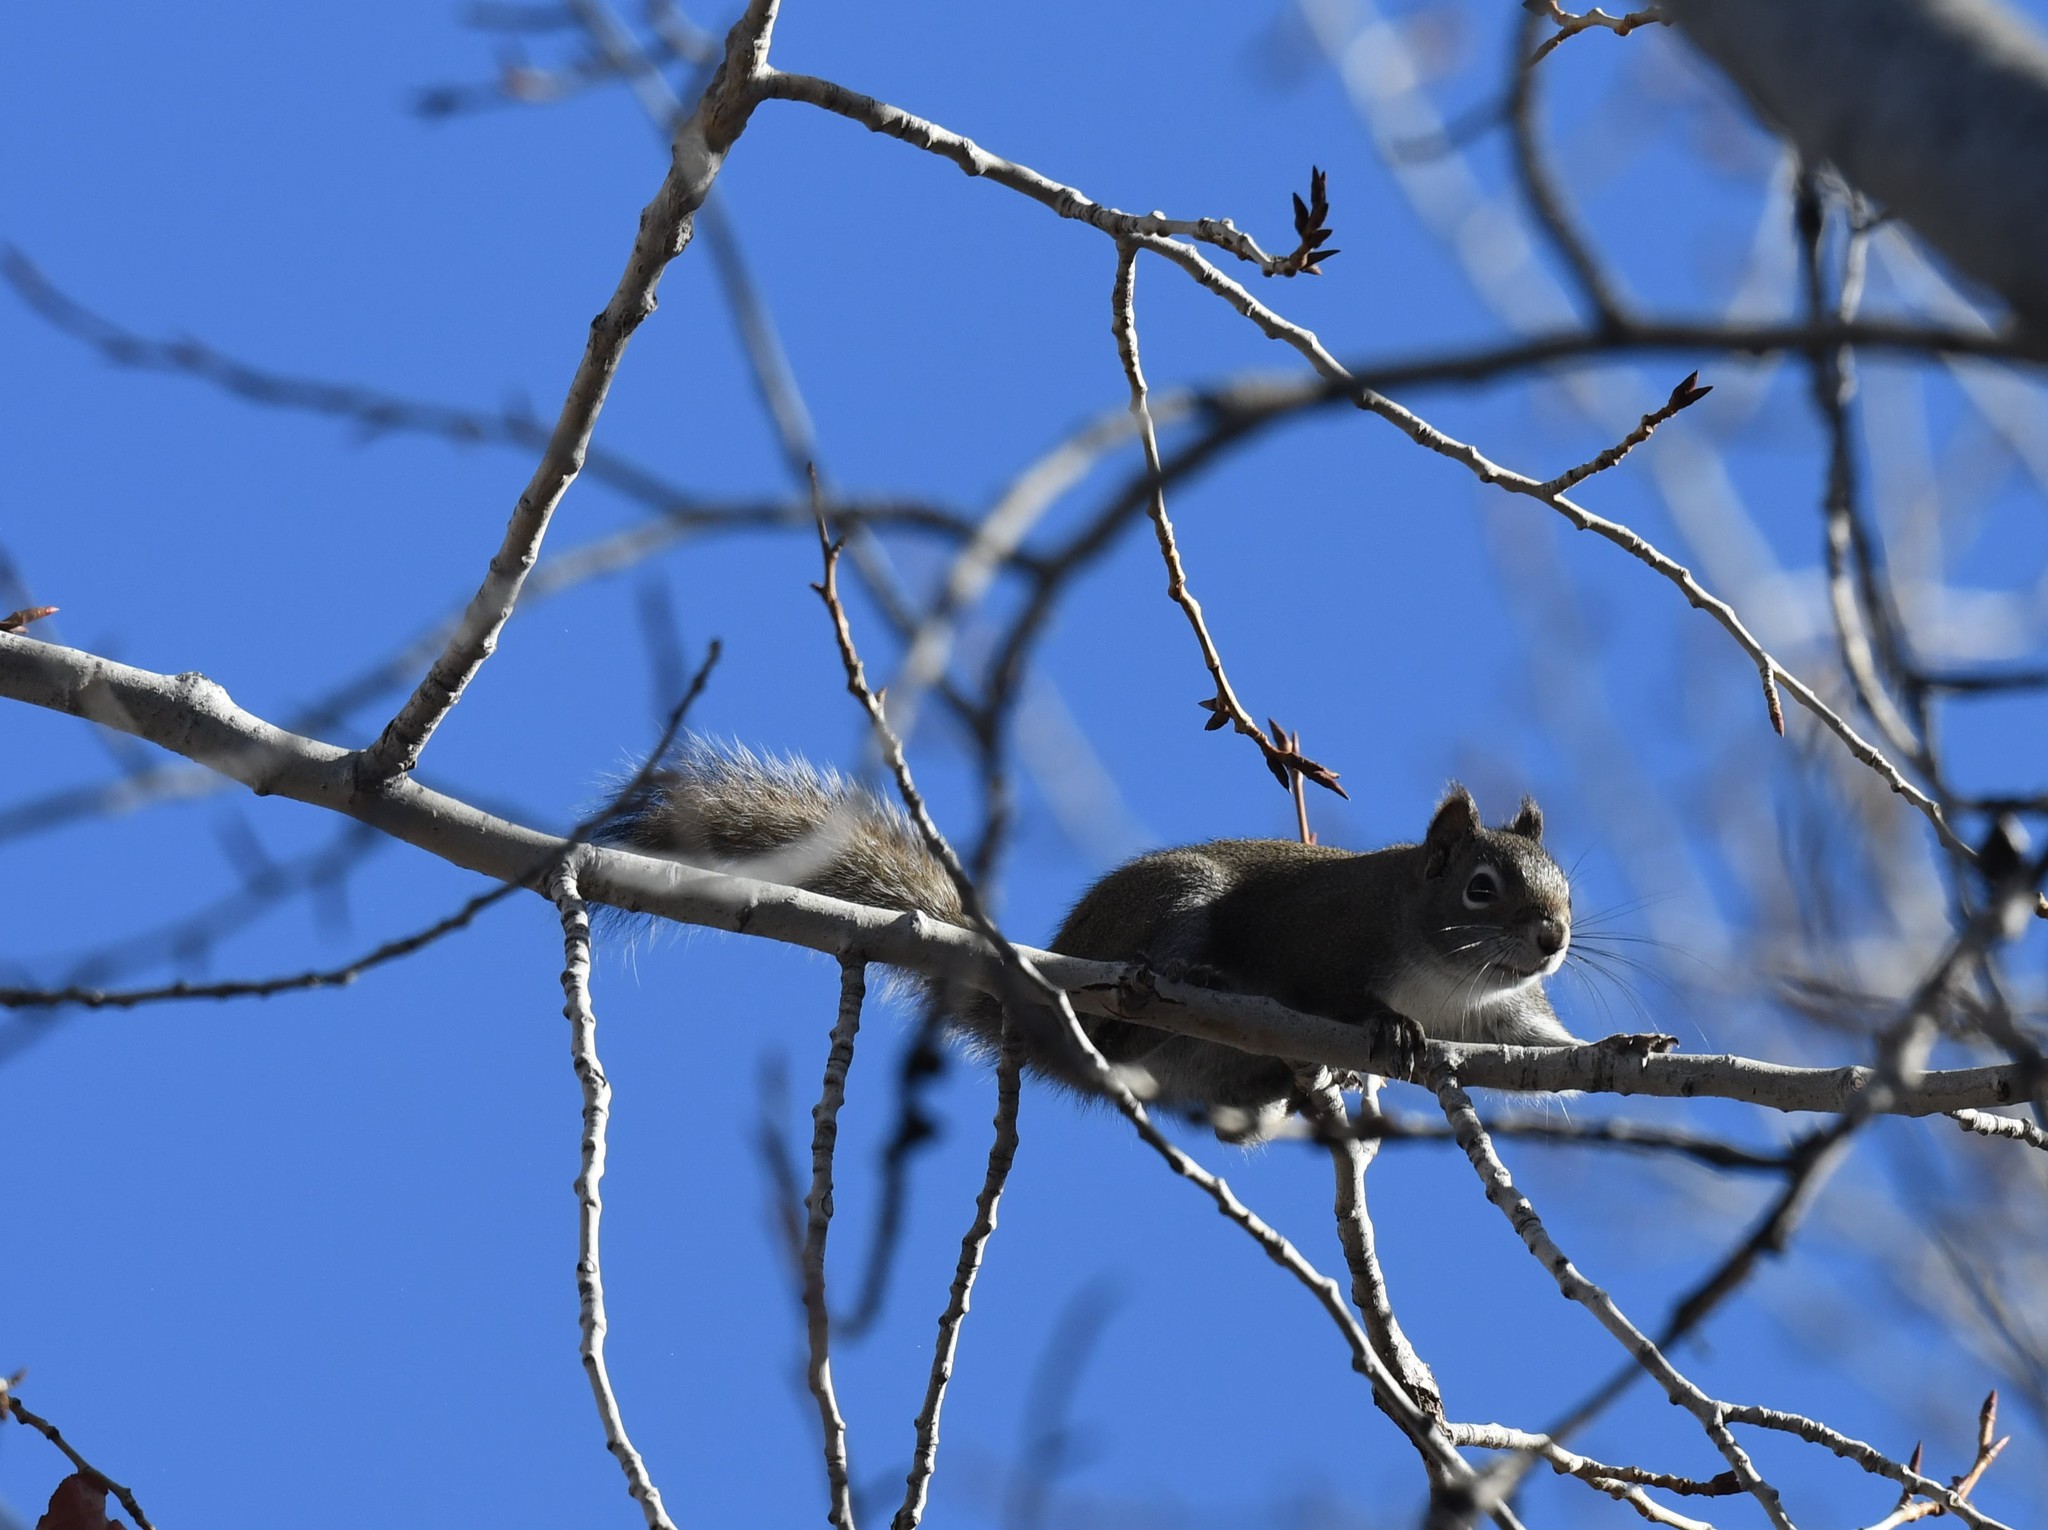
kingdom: Animalia
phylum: Chordata
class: Mammalia
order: Rodentia
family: Sciuridae
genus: Tamiasciurus
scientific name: Tamiasciurus hudsonicus
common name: Red squirrel
